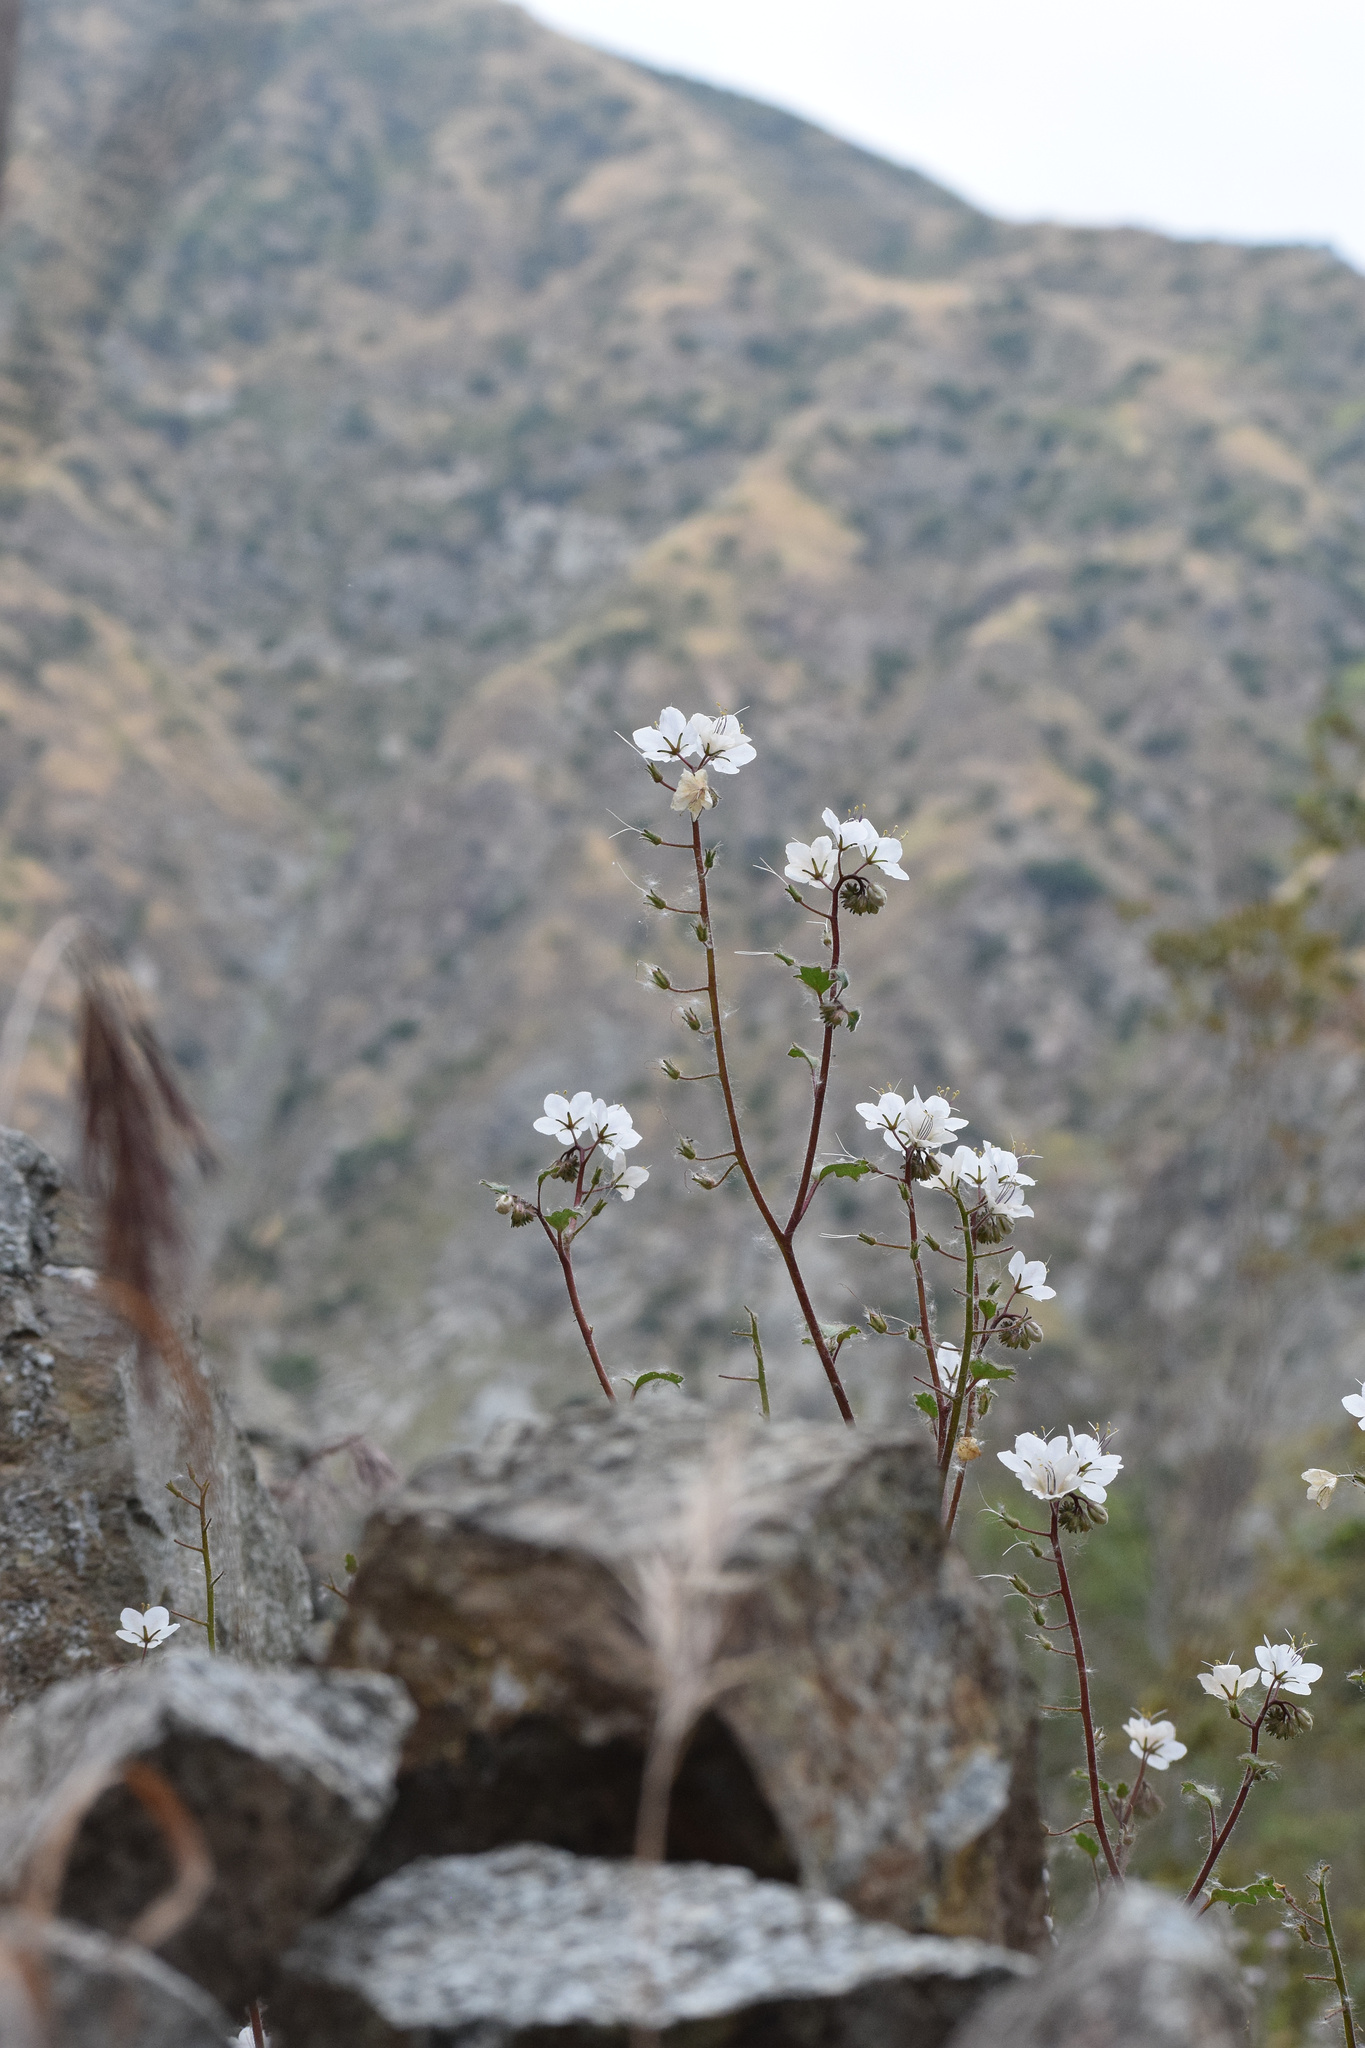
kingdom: Plantae
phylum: Tracheophyta
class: Magnoliopsida
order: Boraginales
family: Hydrophyllaceae
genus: Phacelia
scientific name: Phacelia longipes
